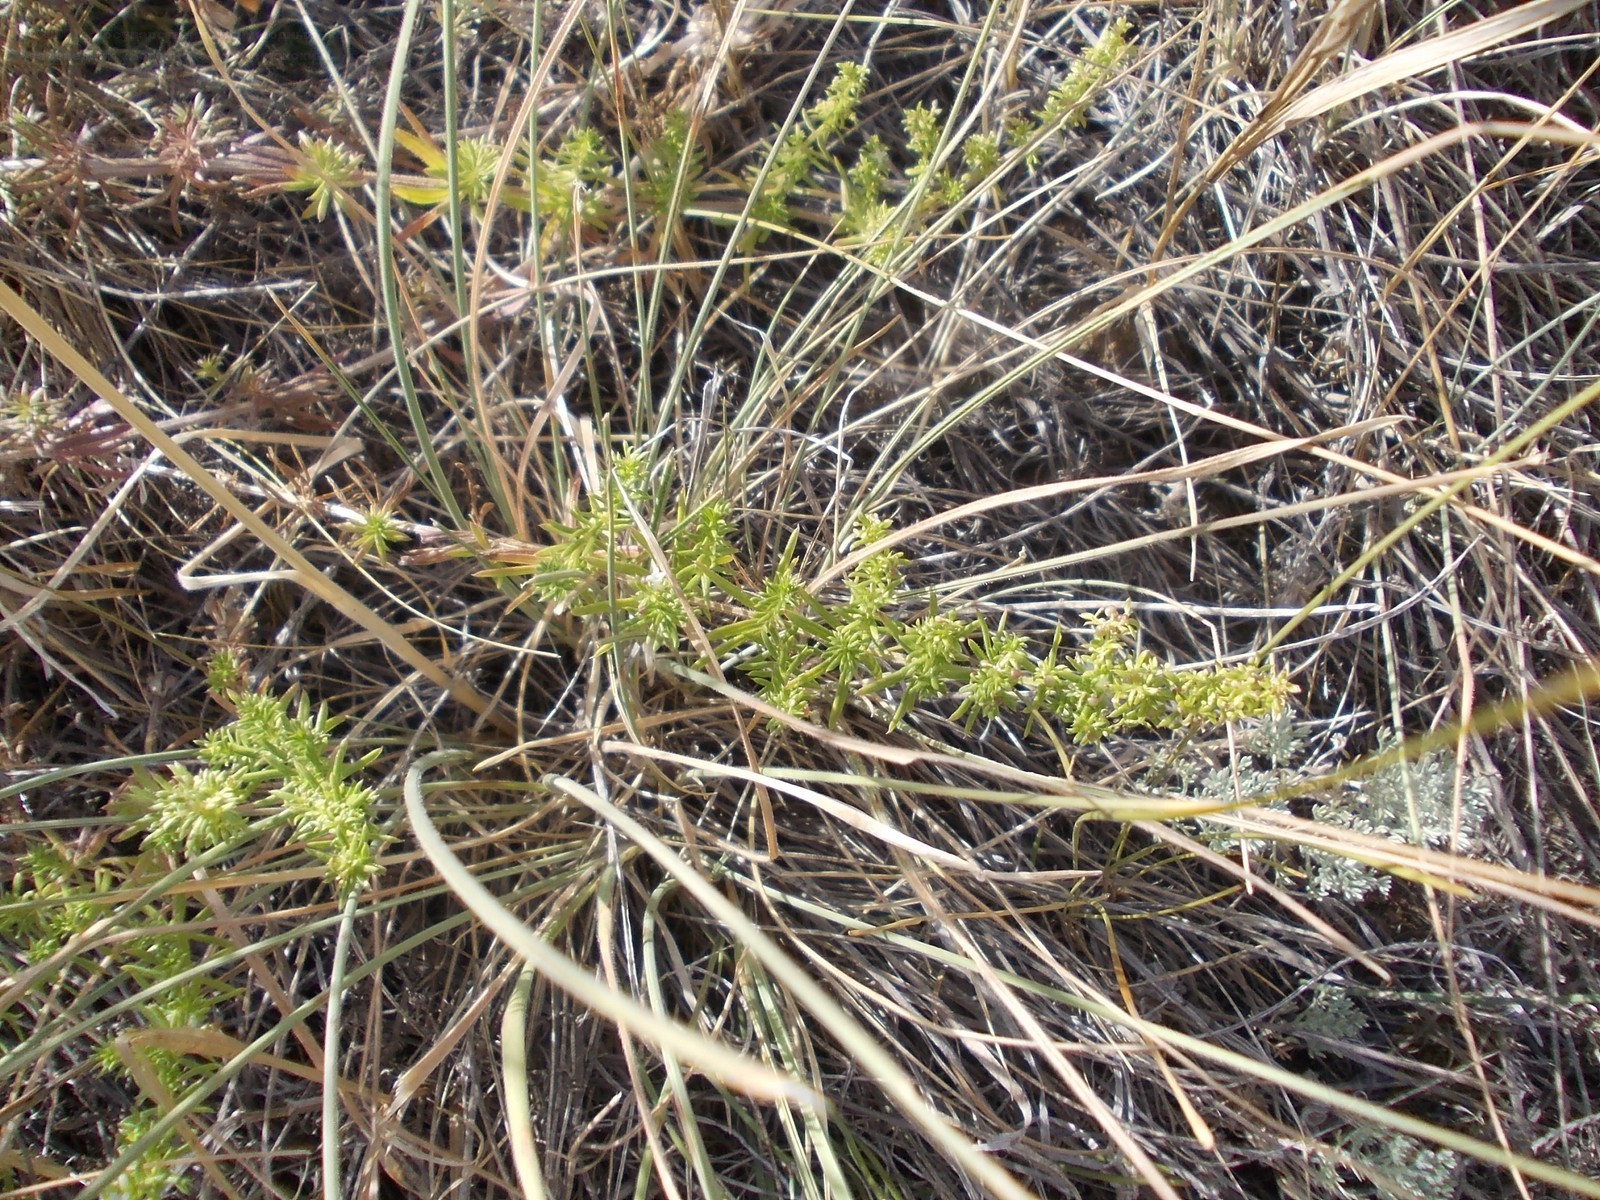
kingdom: Plantae
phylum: Tracheophyta
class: Magnoliopsida
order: Gentianales
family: Rubiaceae
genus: Galium
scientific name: Galium humifusum
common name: Spreading bedstraw
